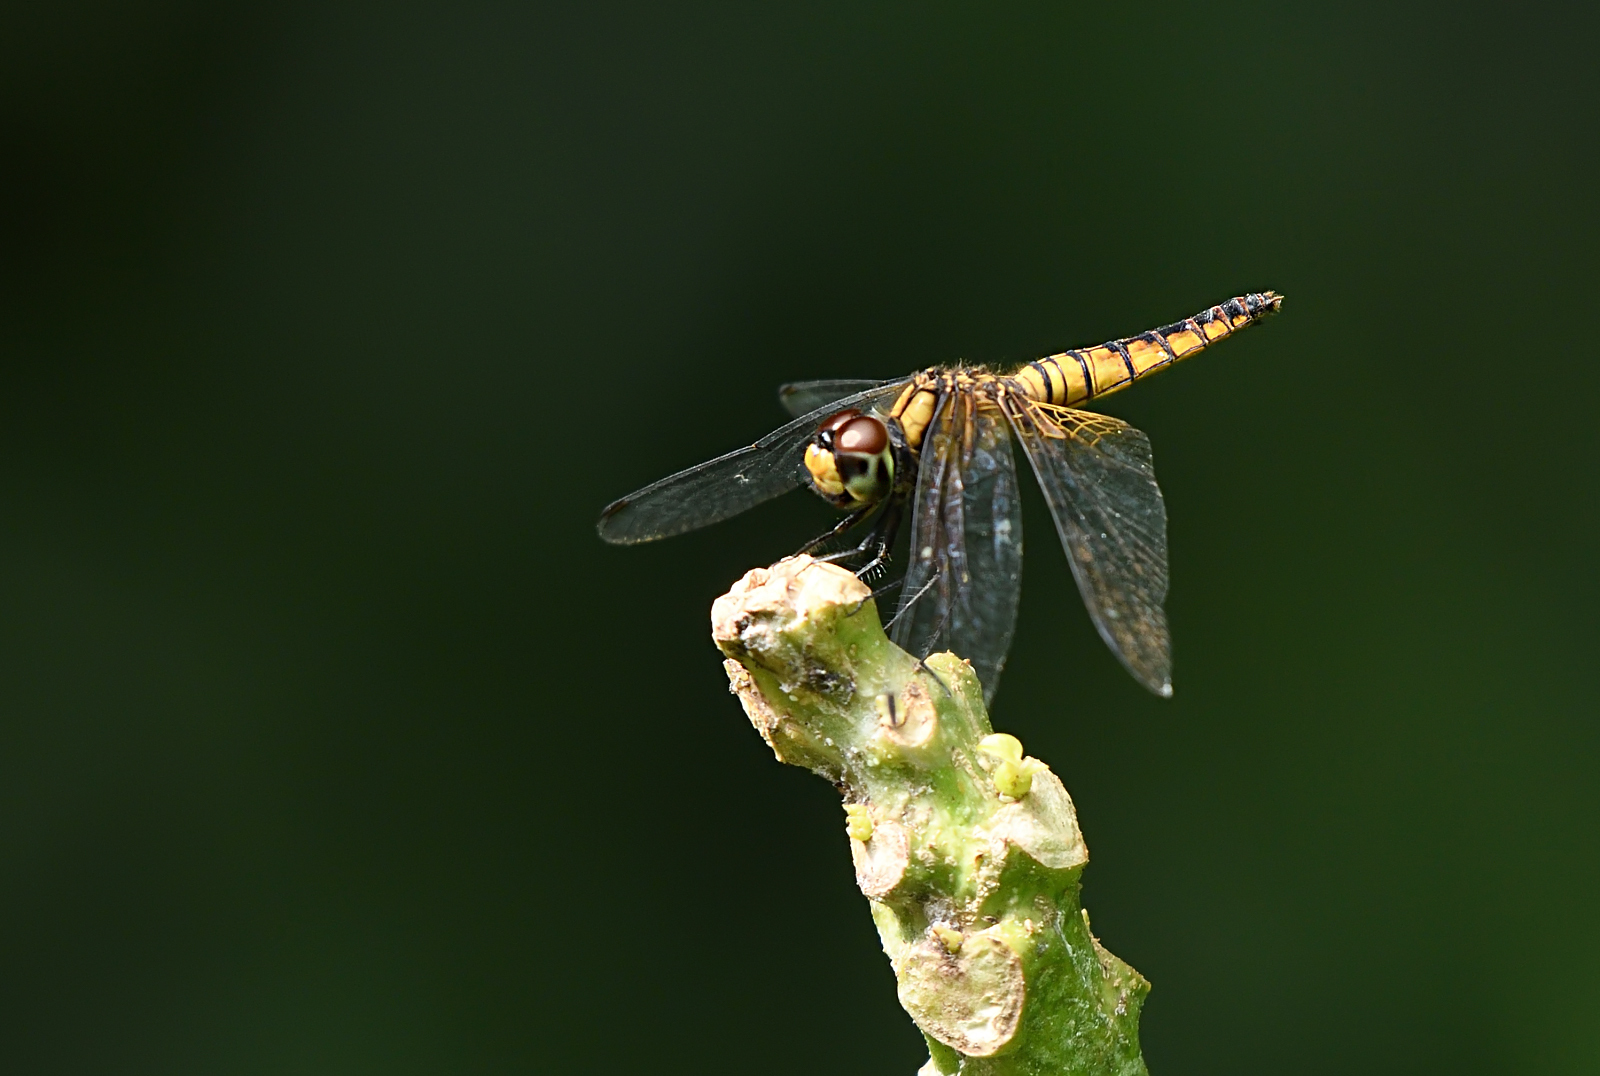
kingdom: Animalia
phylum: Arthropoda
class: Insecta
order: Odonata
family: Libellulidae
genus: Aethriamanta
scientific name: Aethriamanta brevipennis
